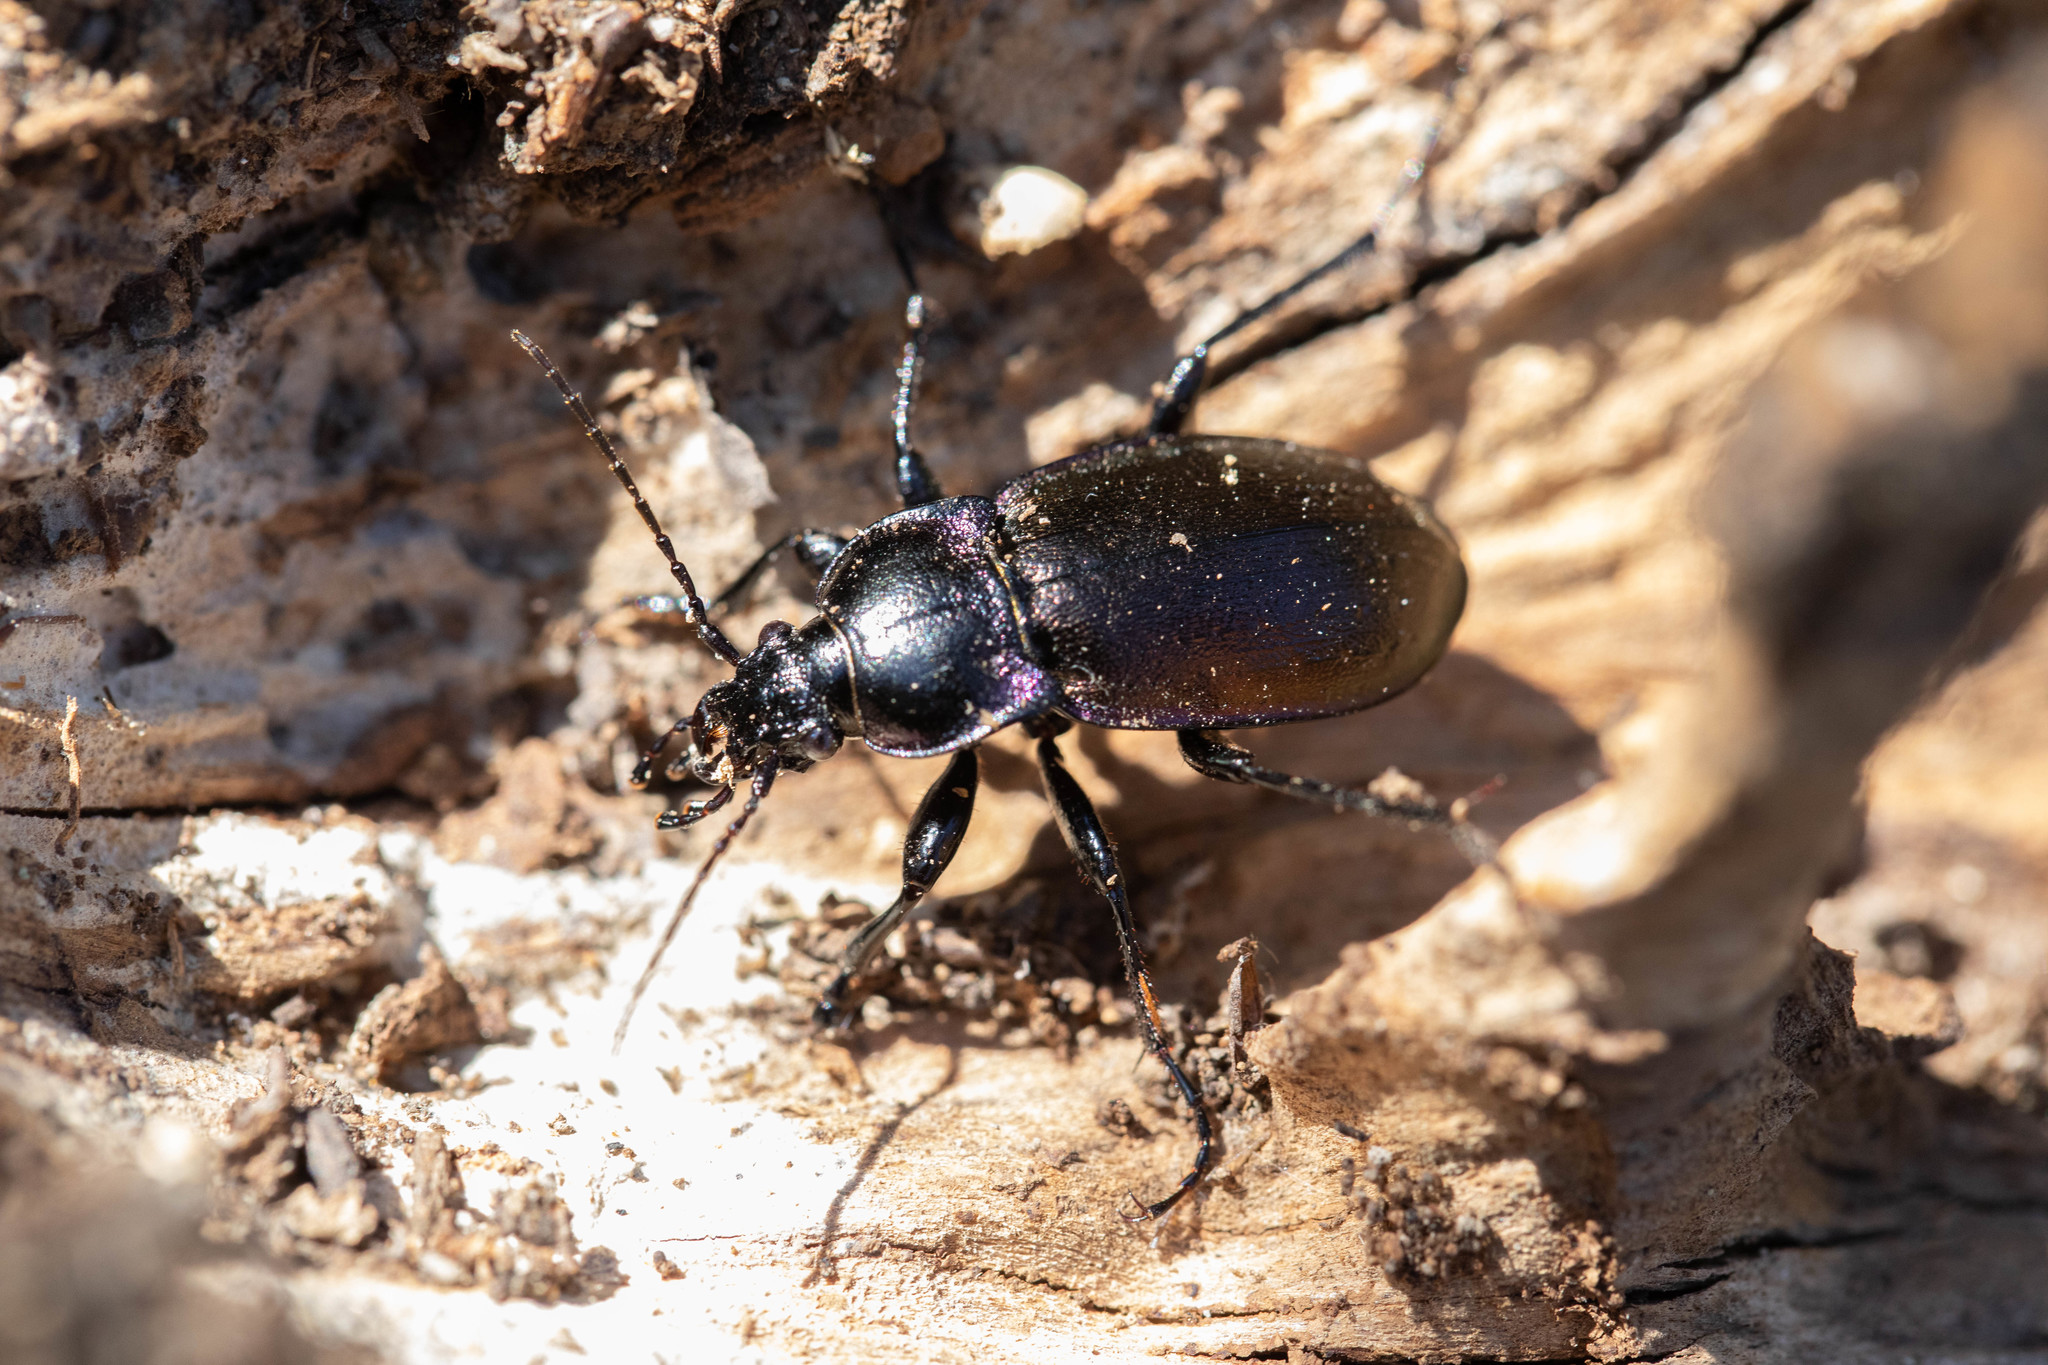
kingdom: Animalia
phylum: Arthropoda
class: Insecta
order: Coleoptera
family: Carabidae
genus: Carabus
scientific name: Carabus nemoralis
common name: European ground beetle
